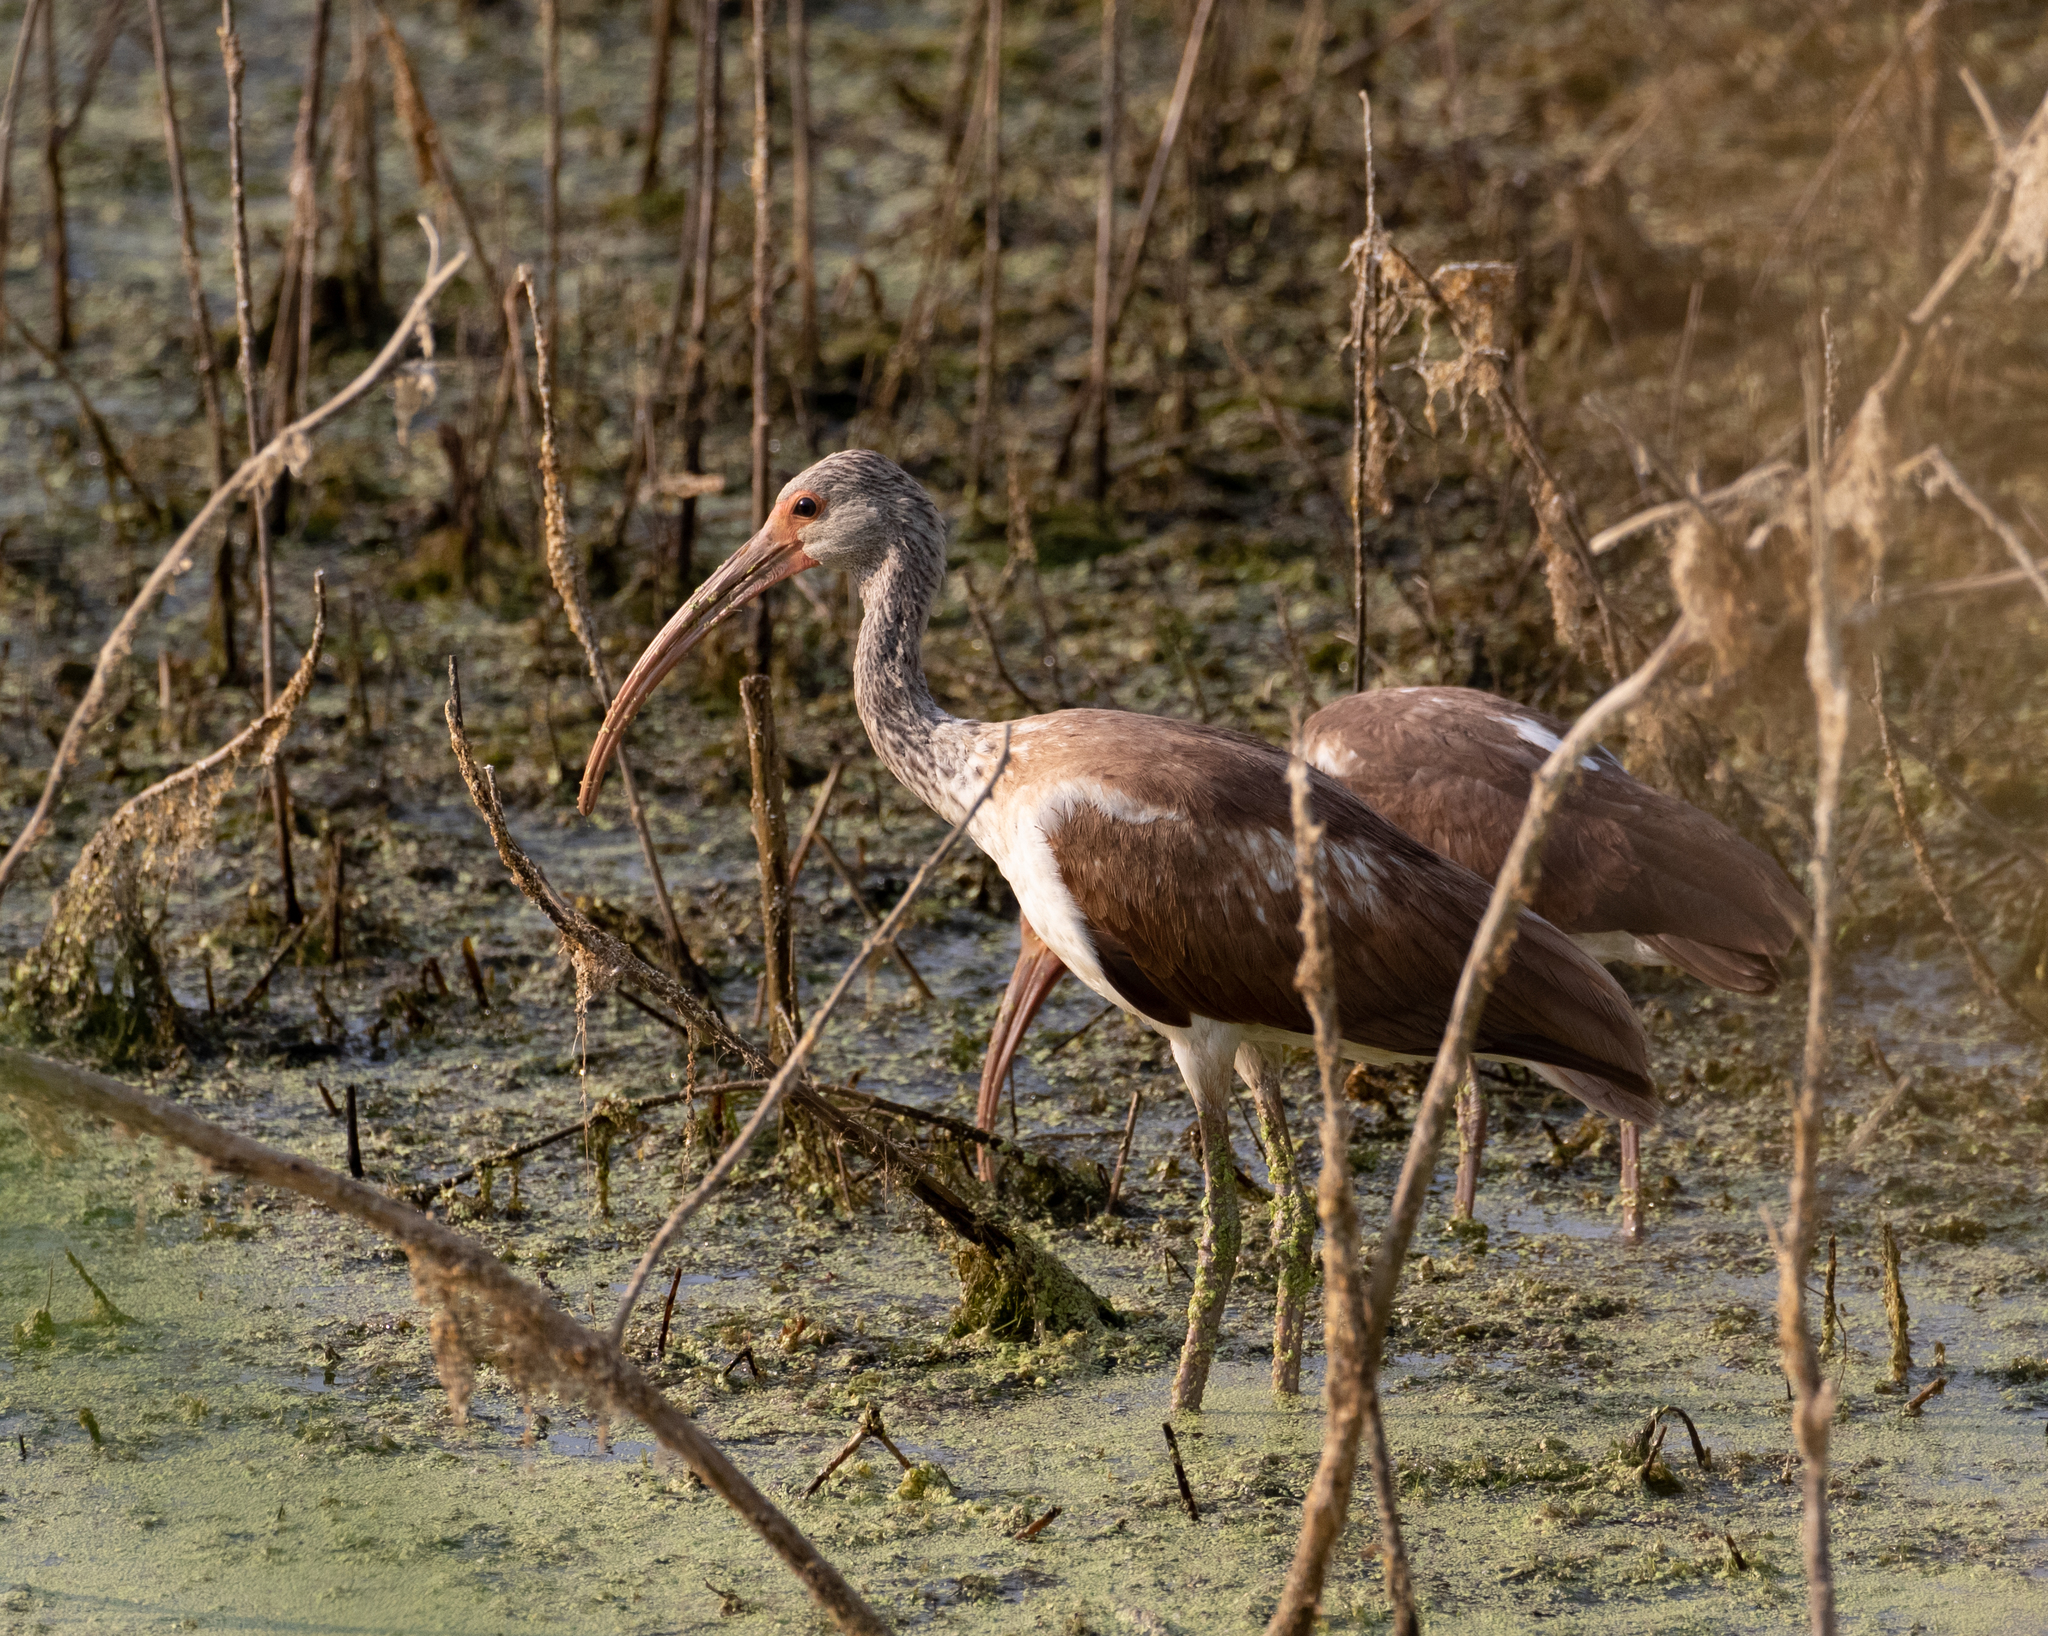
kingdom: Animalia
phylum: Chordata
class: Aves
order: Pelecaniformes
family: Threskiornithidae
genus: Eudocimus
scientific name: Eudocimus albus
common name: White ibis
